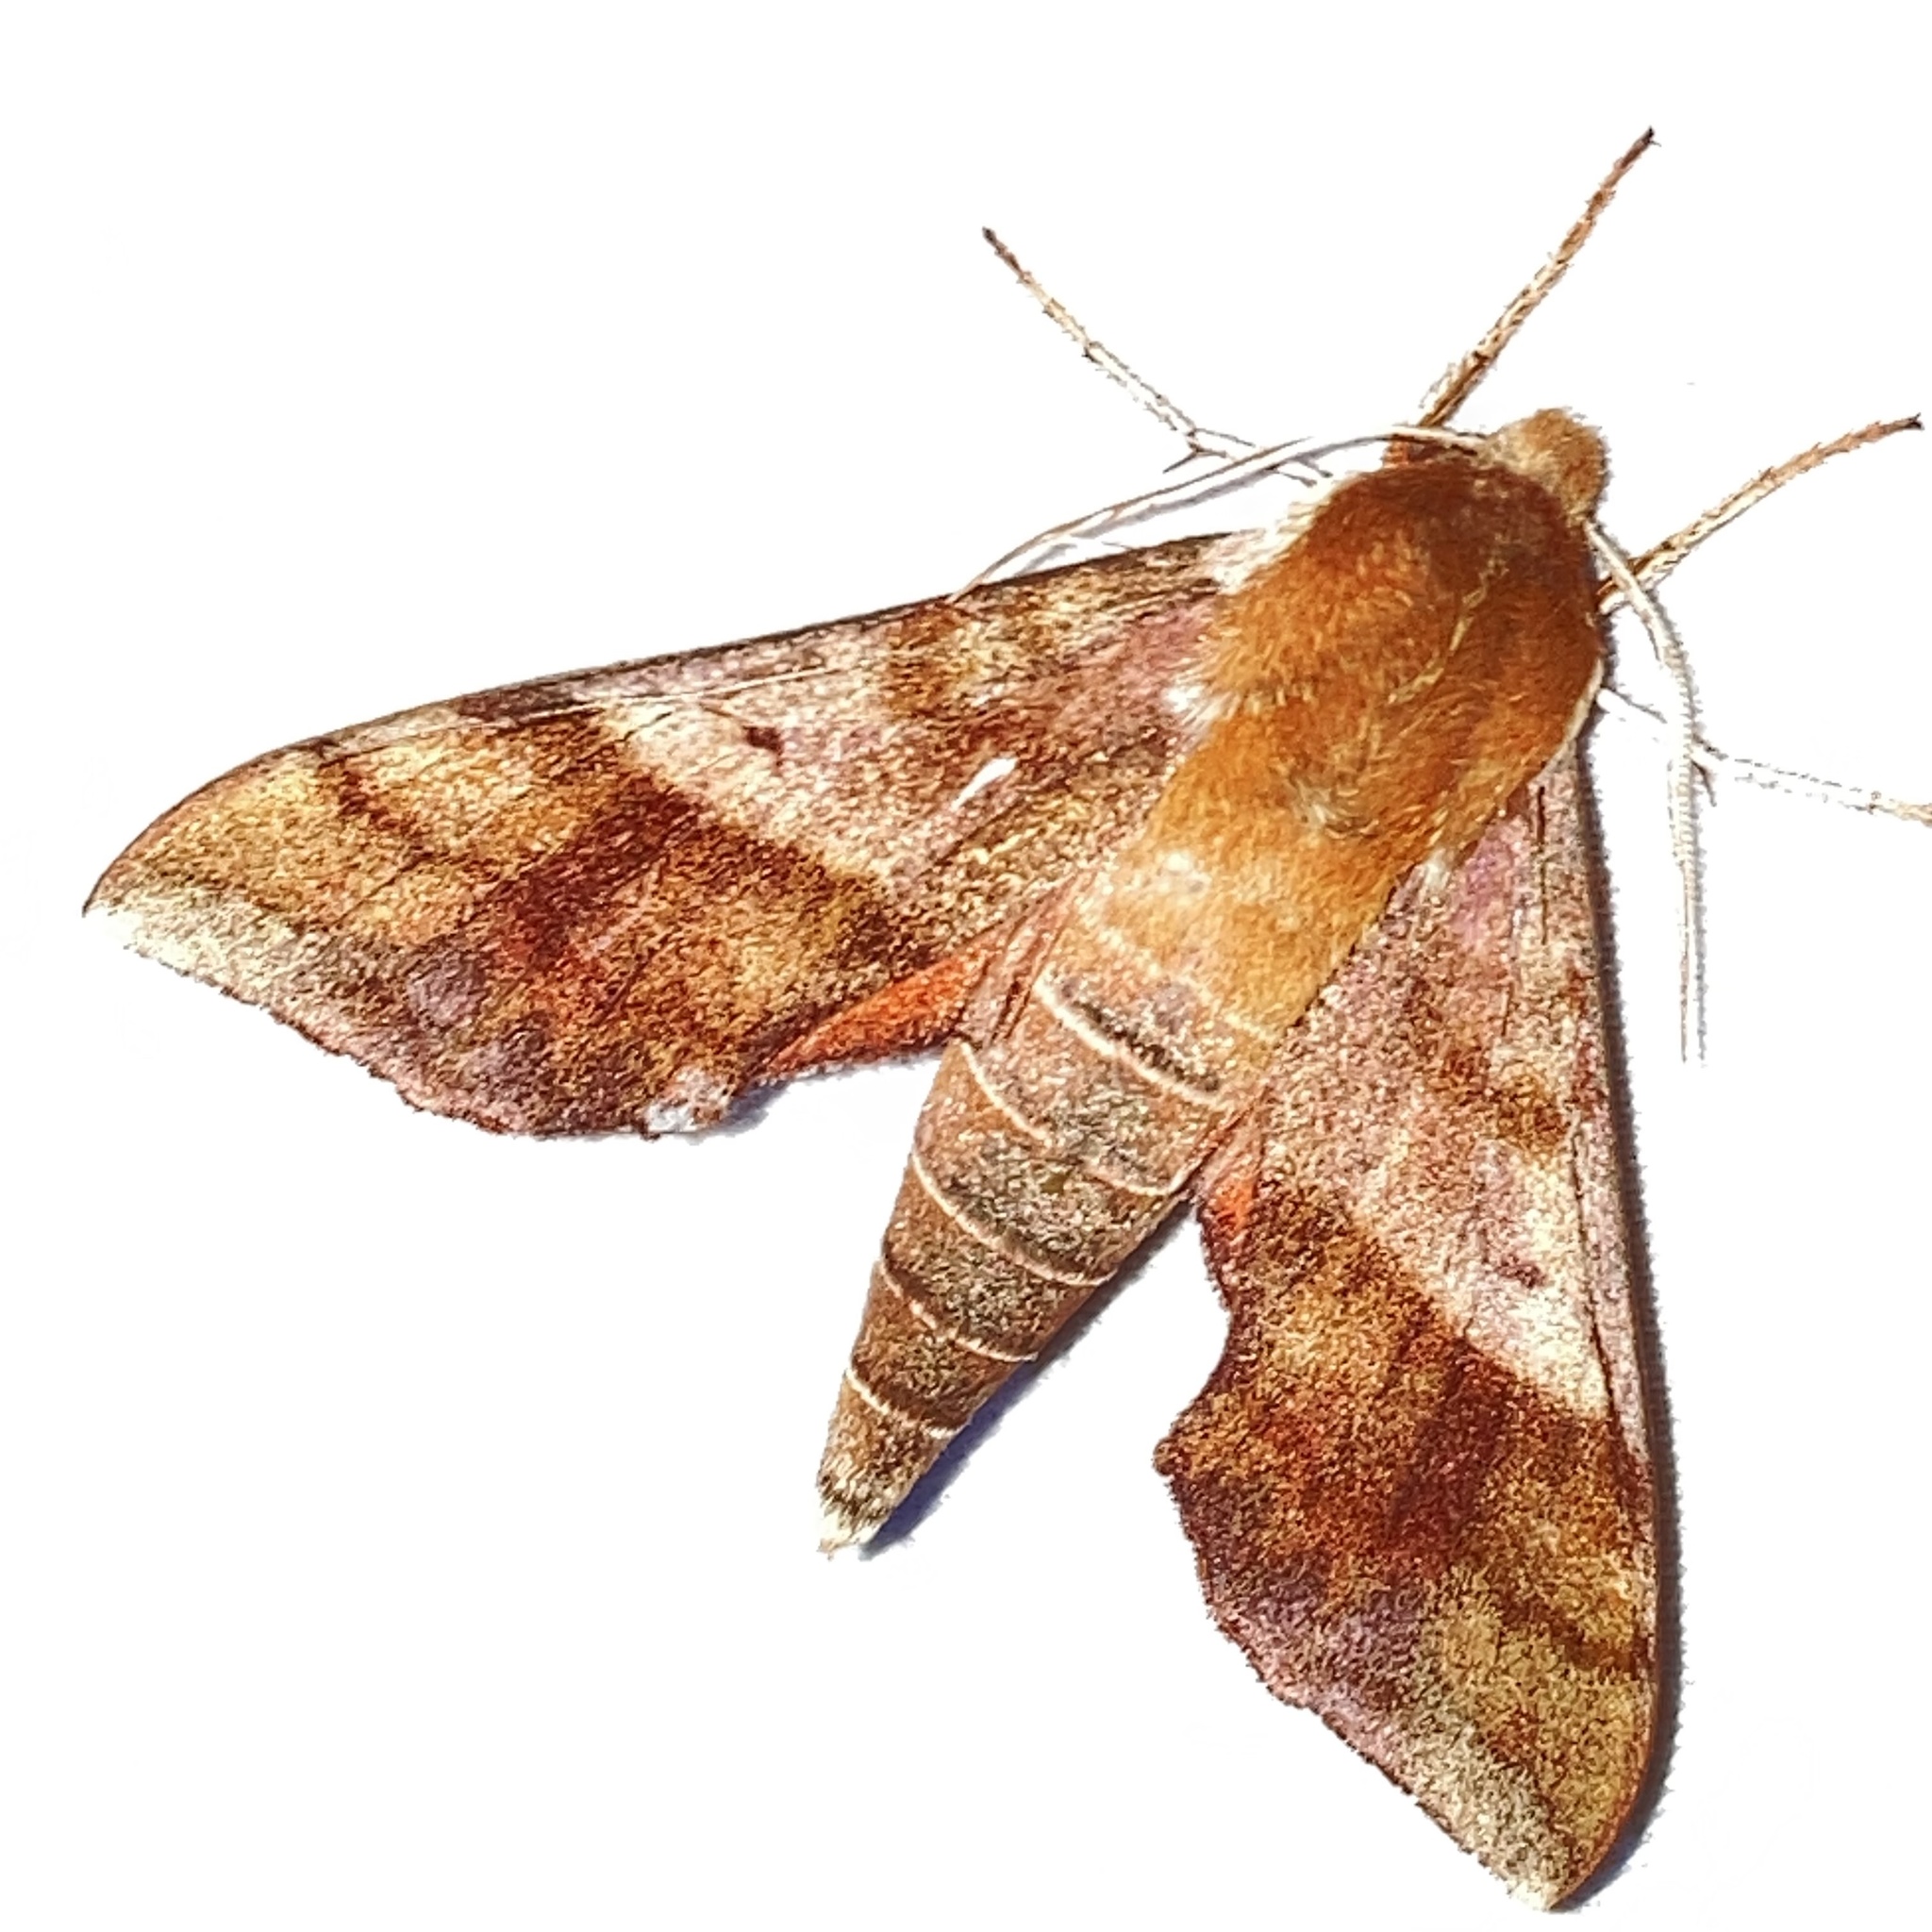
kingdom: Animalia
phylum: Arthropoda
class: Insecta
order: Lepidoptera
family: Sphingidae
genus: Darapsa
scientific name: Darapsa choerilus
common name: Azalea sphinx
